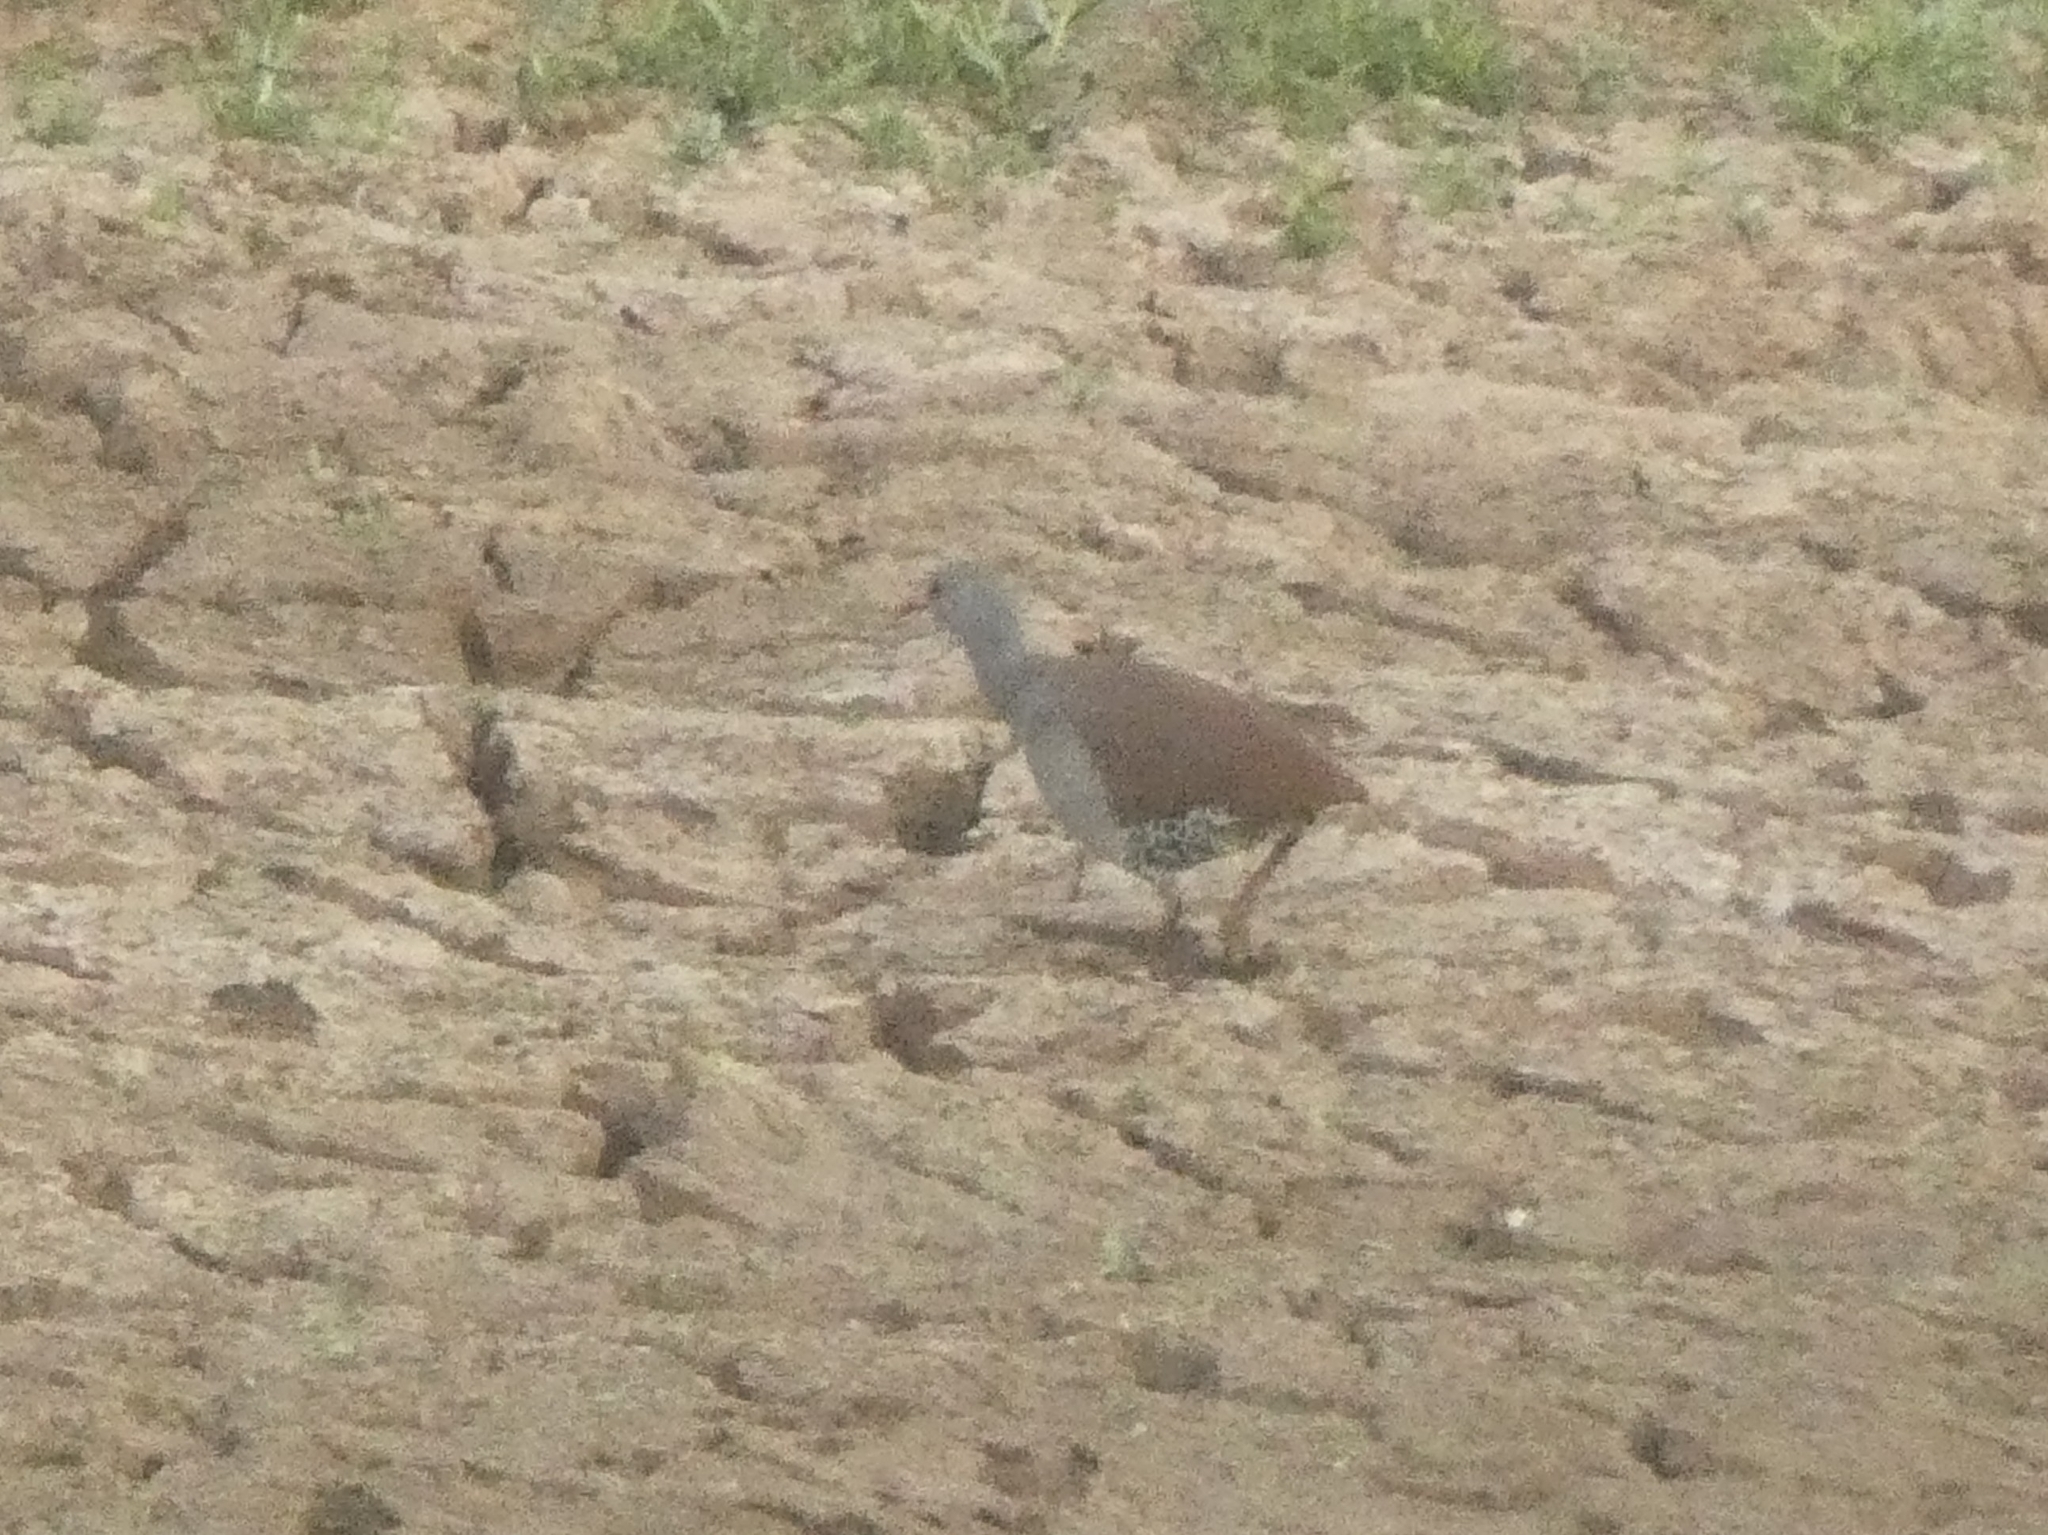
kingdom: Animalia
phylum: Chordata
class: Aves
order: Tinamiformes
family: Tinamidae
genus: Crypturellus
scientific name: Crypturellus tataupa
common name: Tataupa tinamou
